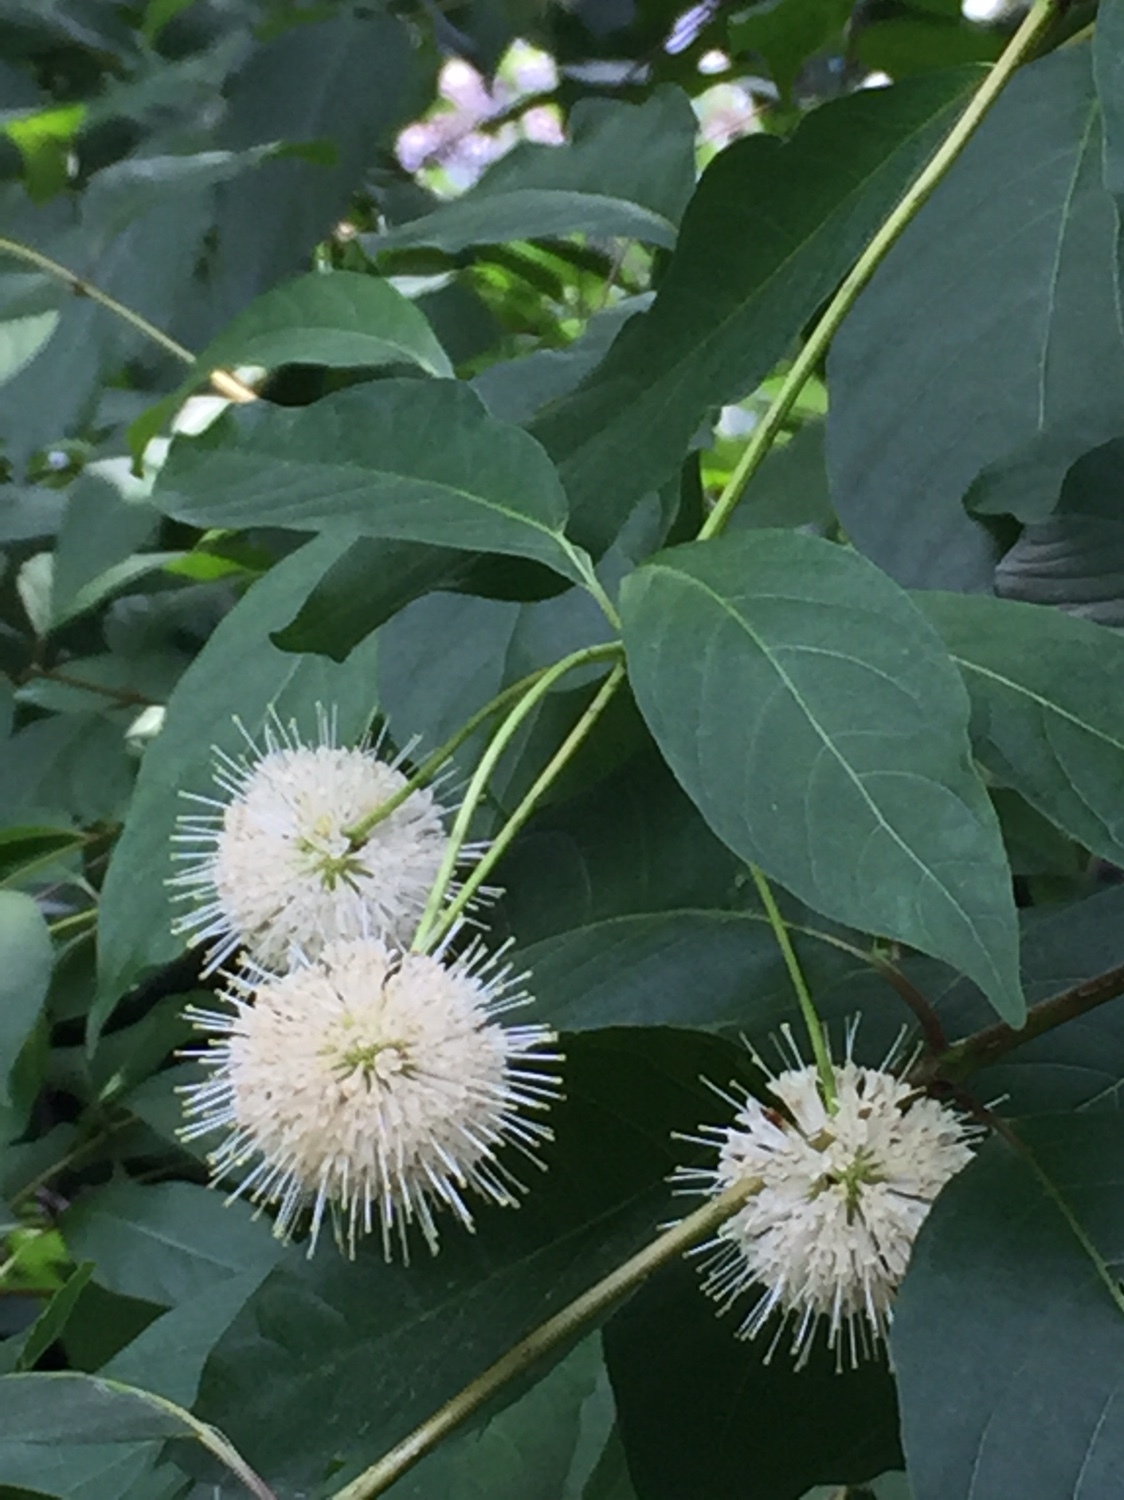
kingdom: Plantae
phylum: Tracheophyta
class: Magnoliopsida
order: Gentianales
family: Rubiaceae
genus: Cephalanthus
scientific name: Cephalanthus occidentalis
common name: Button-willow
